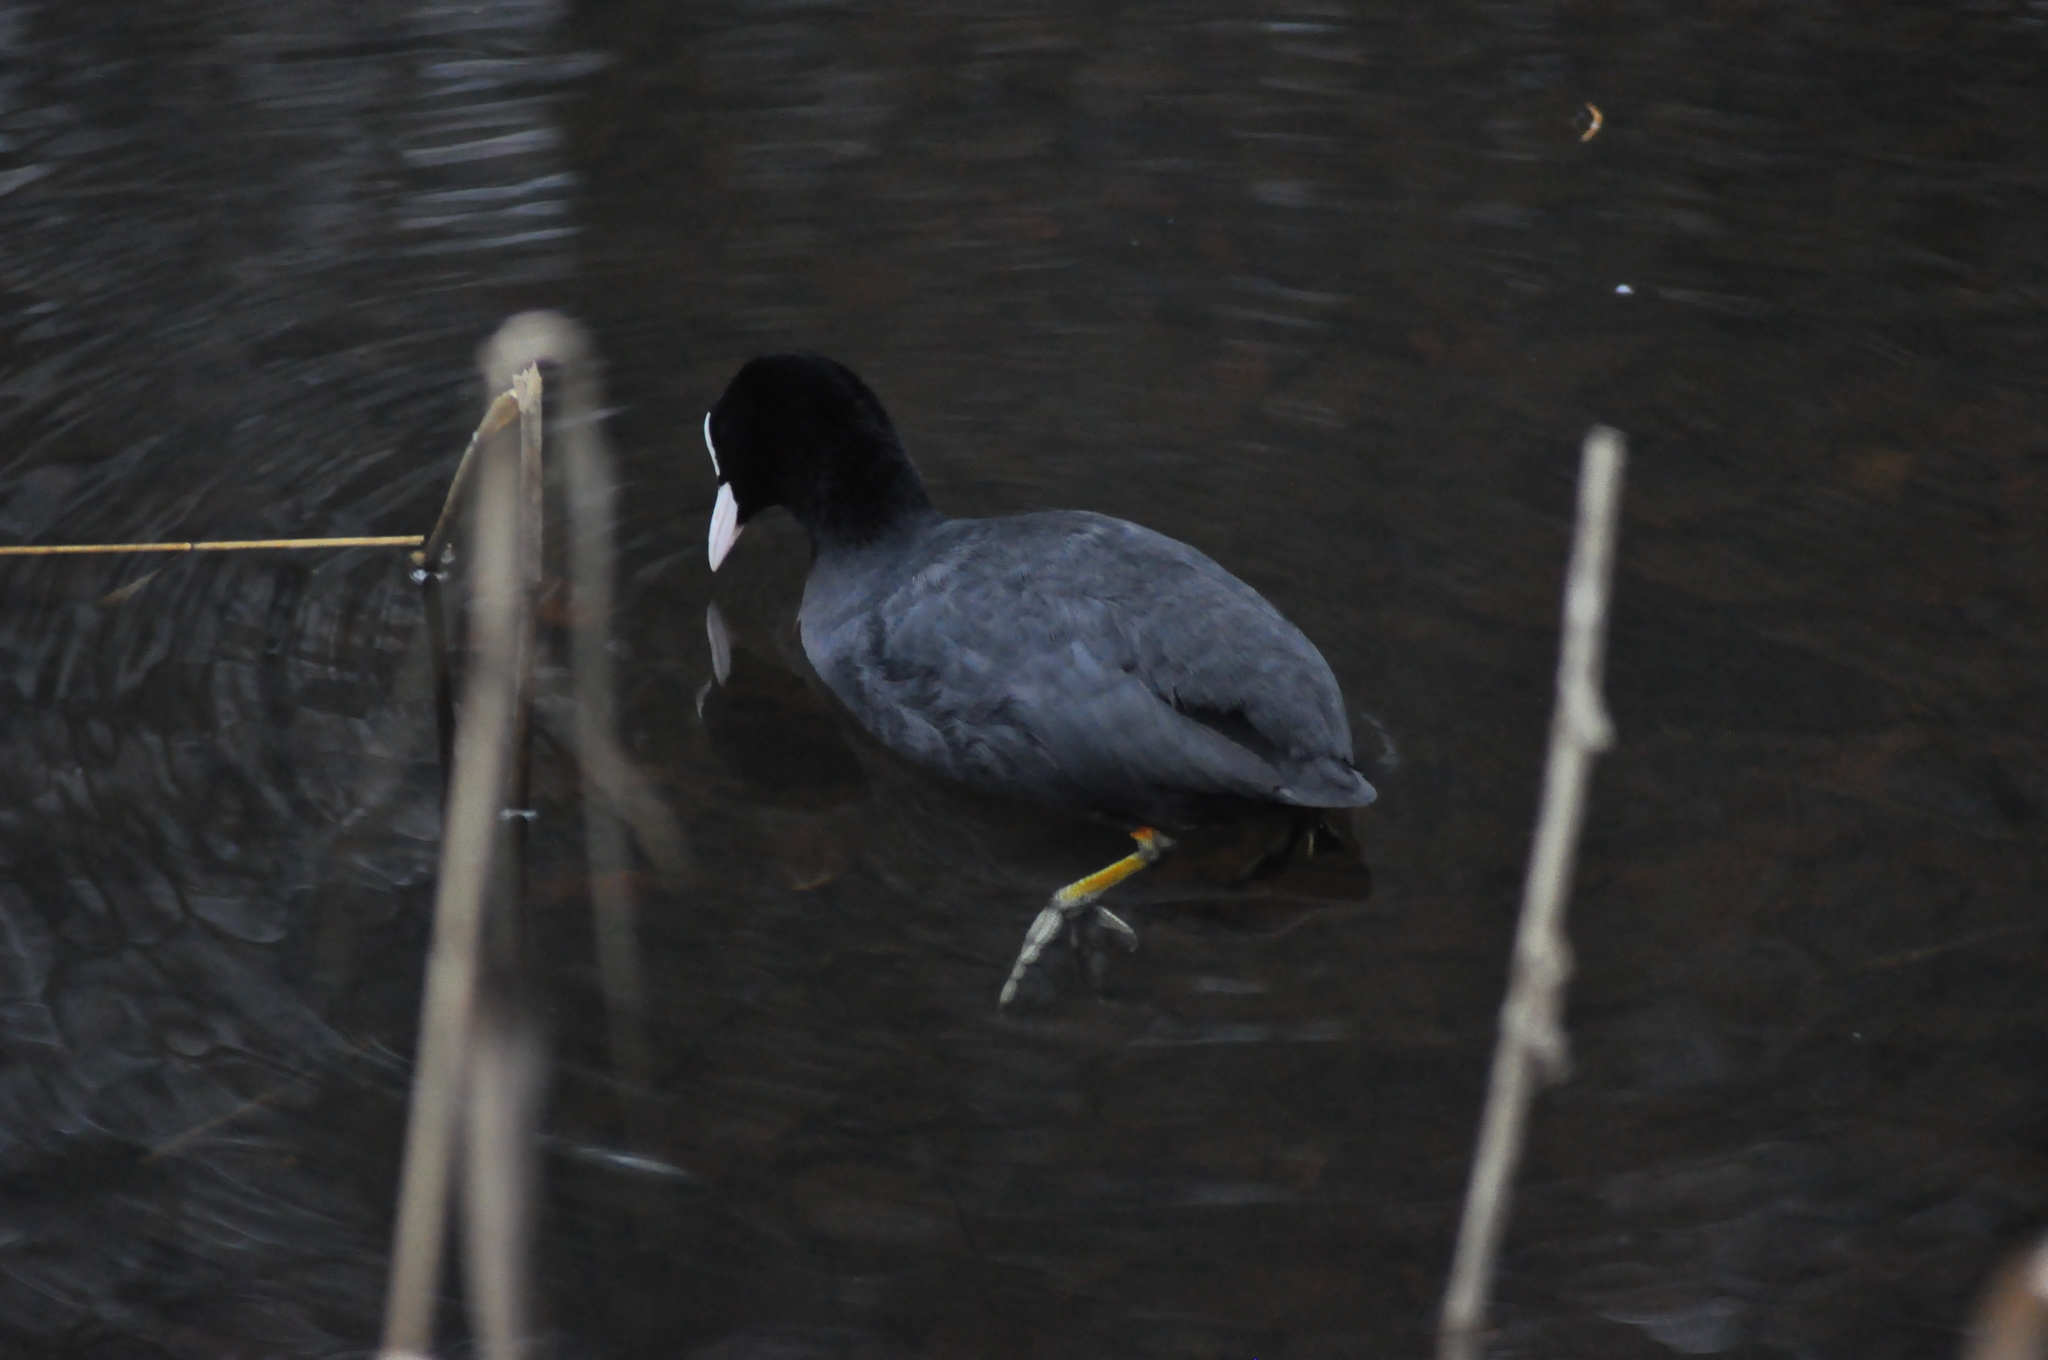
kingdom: Animalia
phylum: Chordata
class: Aves
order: Gruiformes
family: Rallidae
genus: Fulica
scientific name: Fulica atra
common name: Eurasian coot
